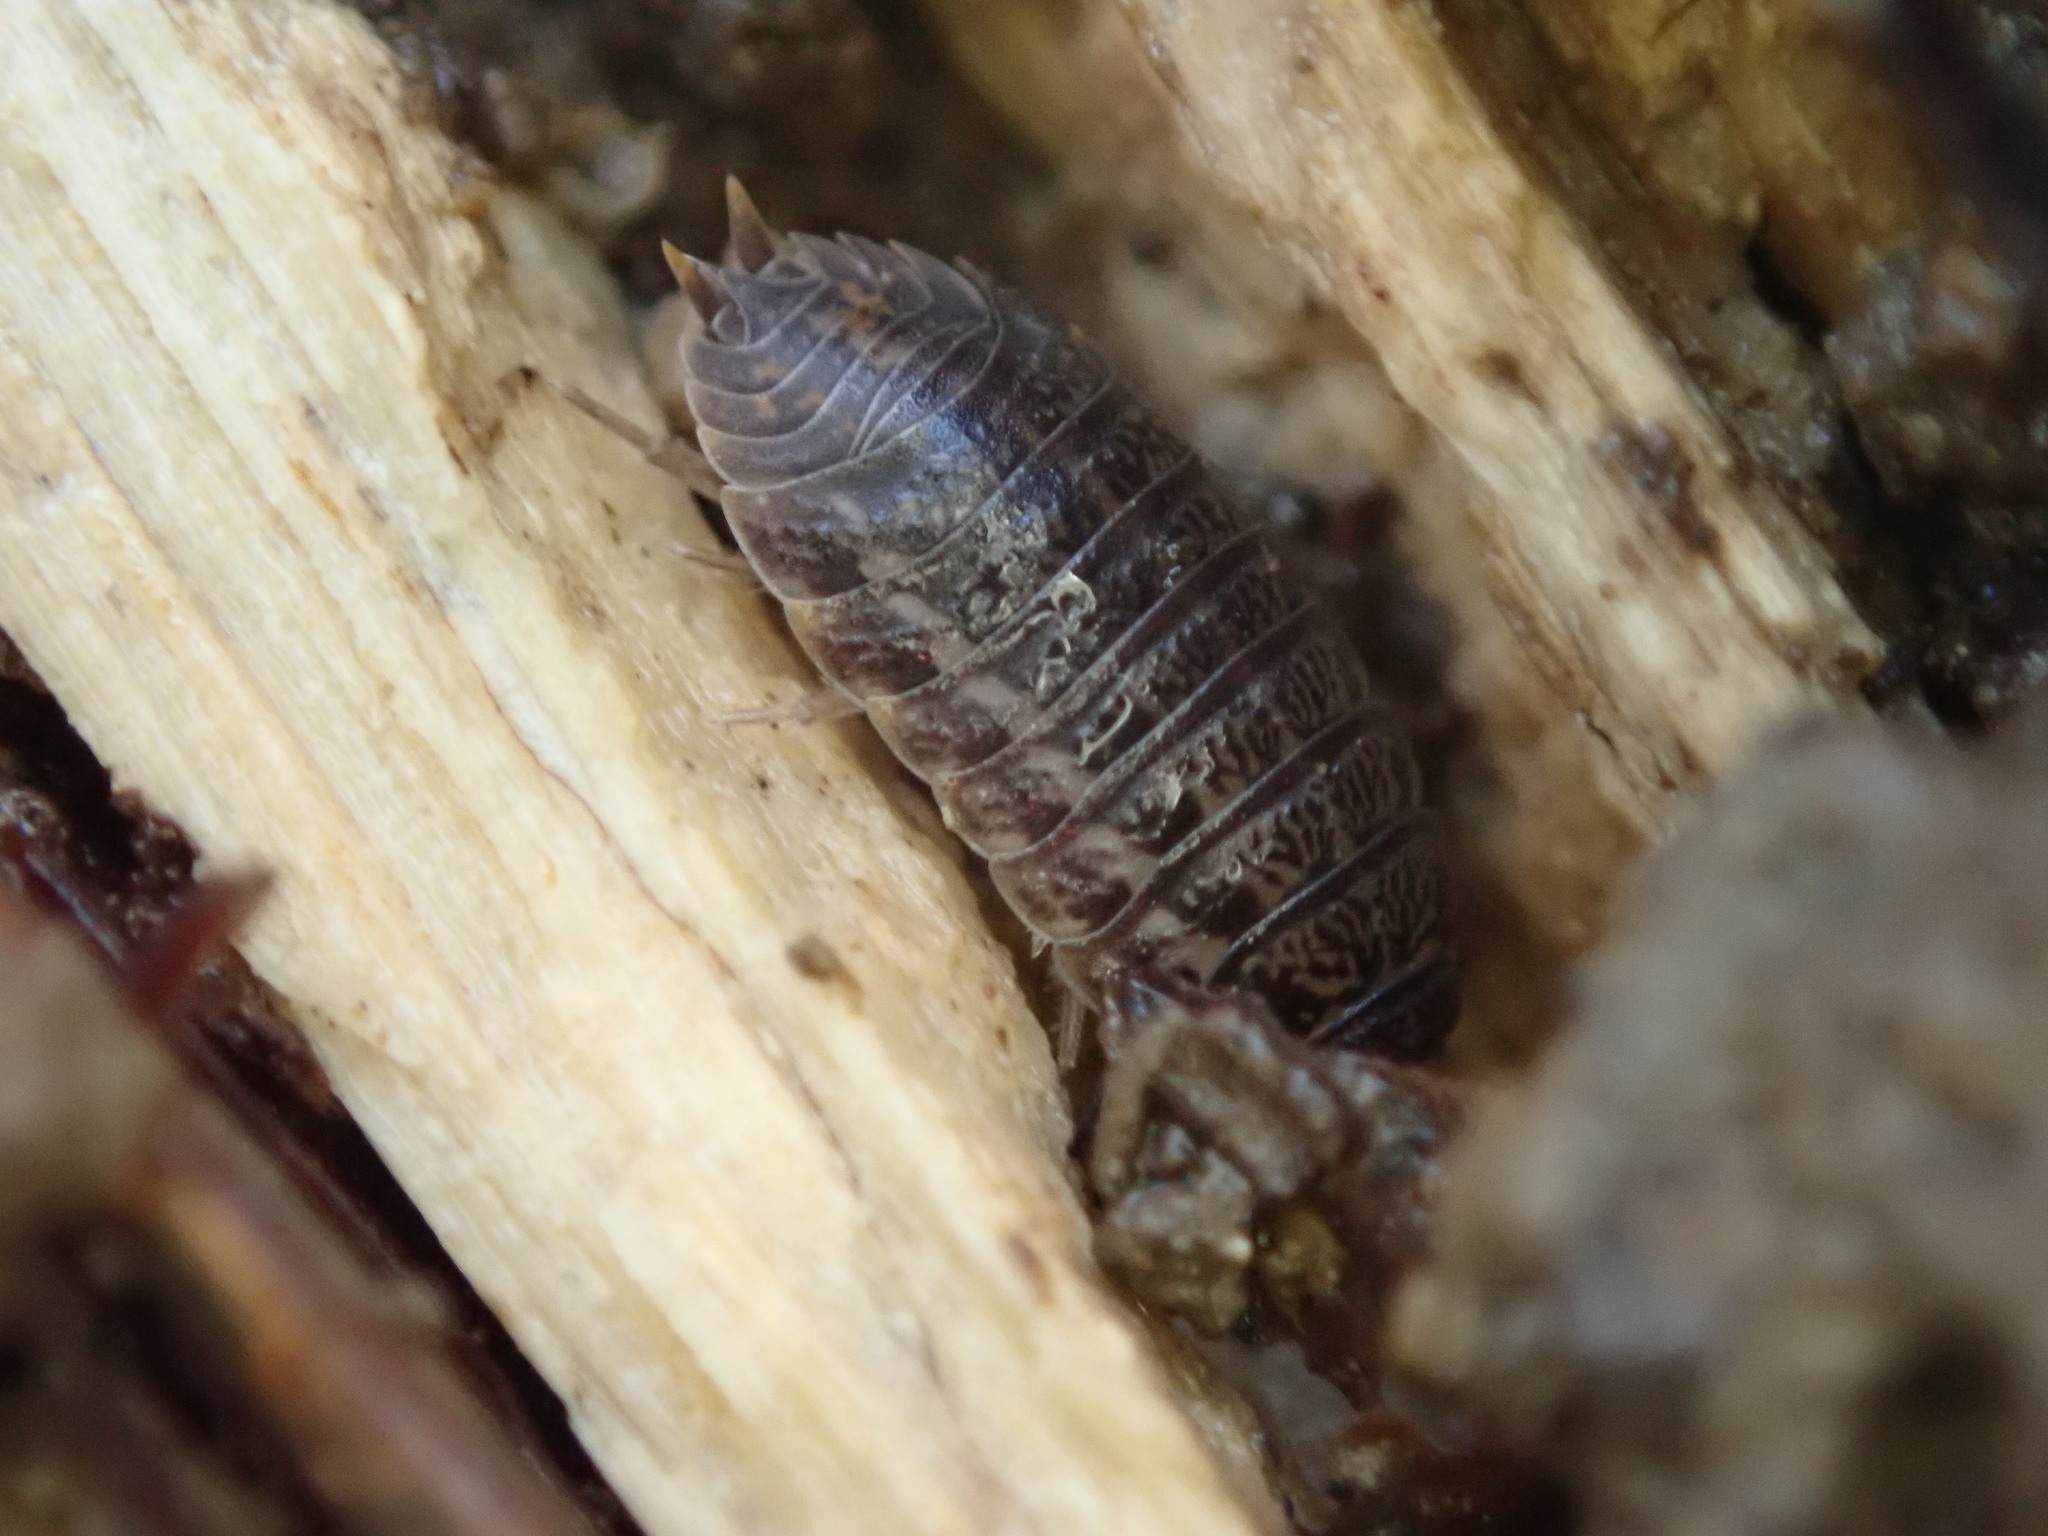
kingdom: Animalia
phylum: Arthropoda
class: Malacostraca
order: Isopoda
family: Trachelipodidae
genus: Trachelipus
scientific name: Trachelipus rathkii
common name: Isopod
